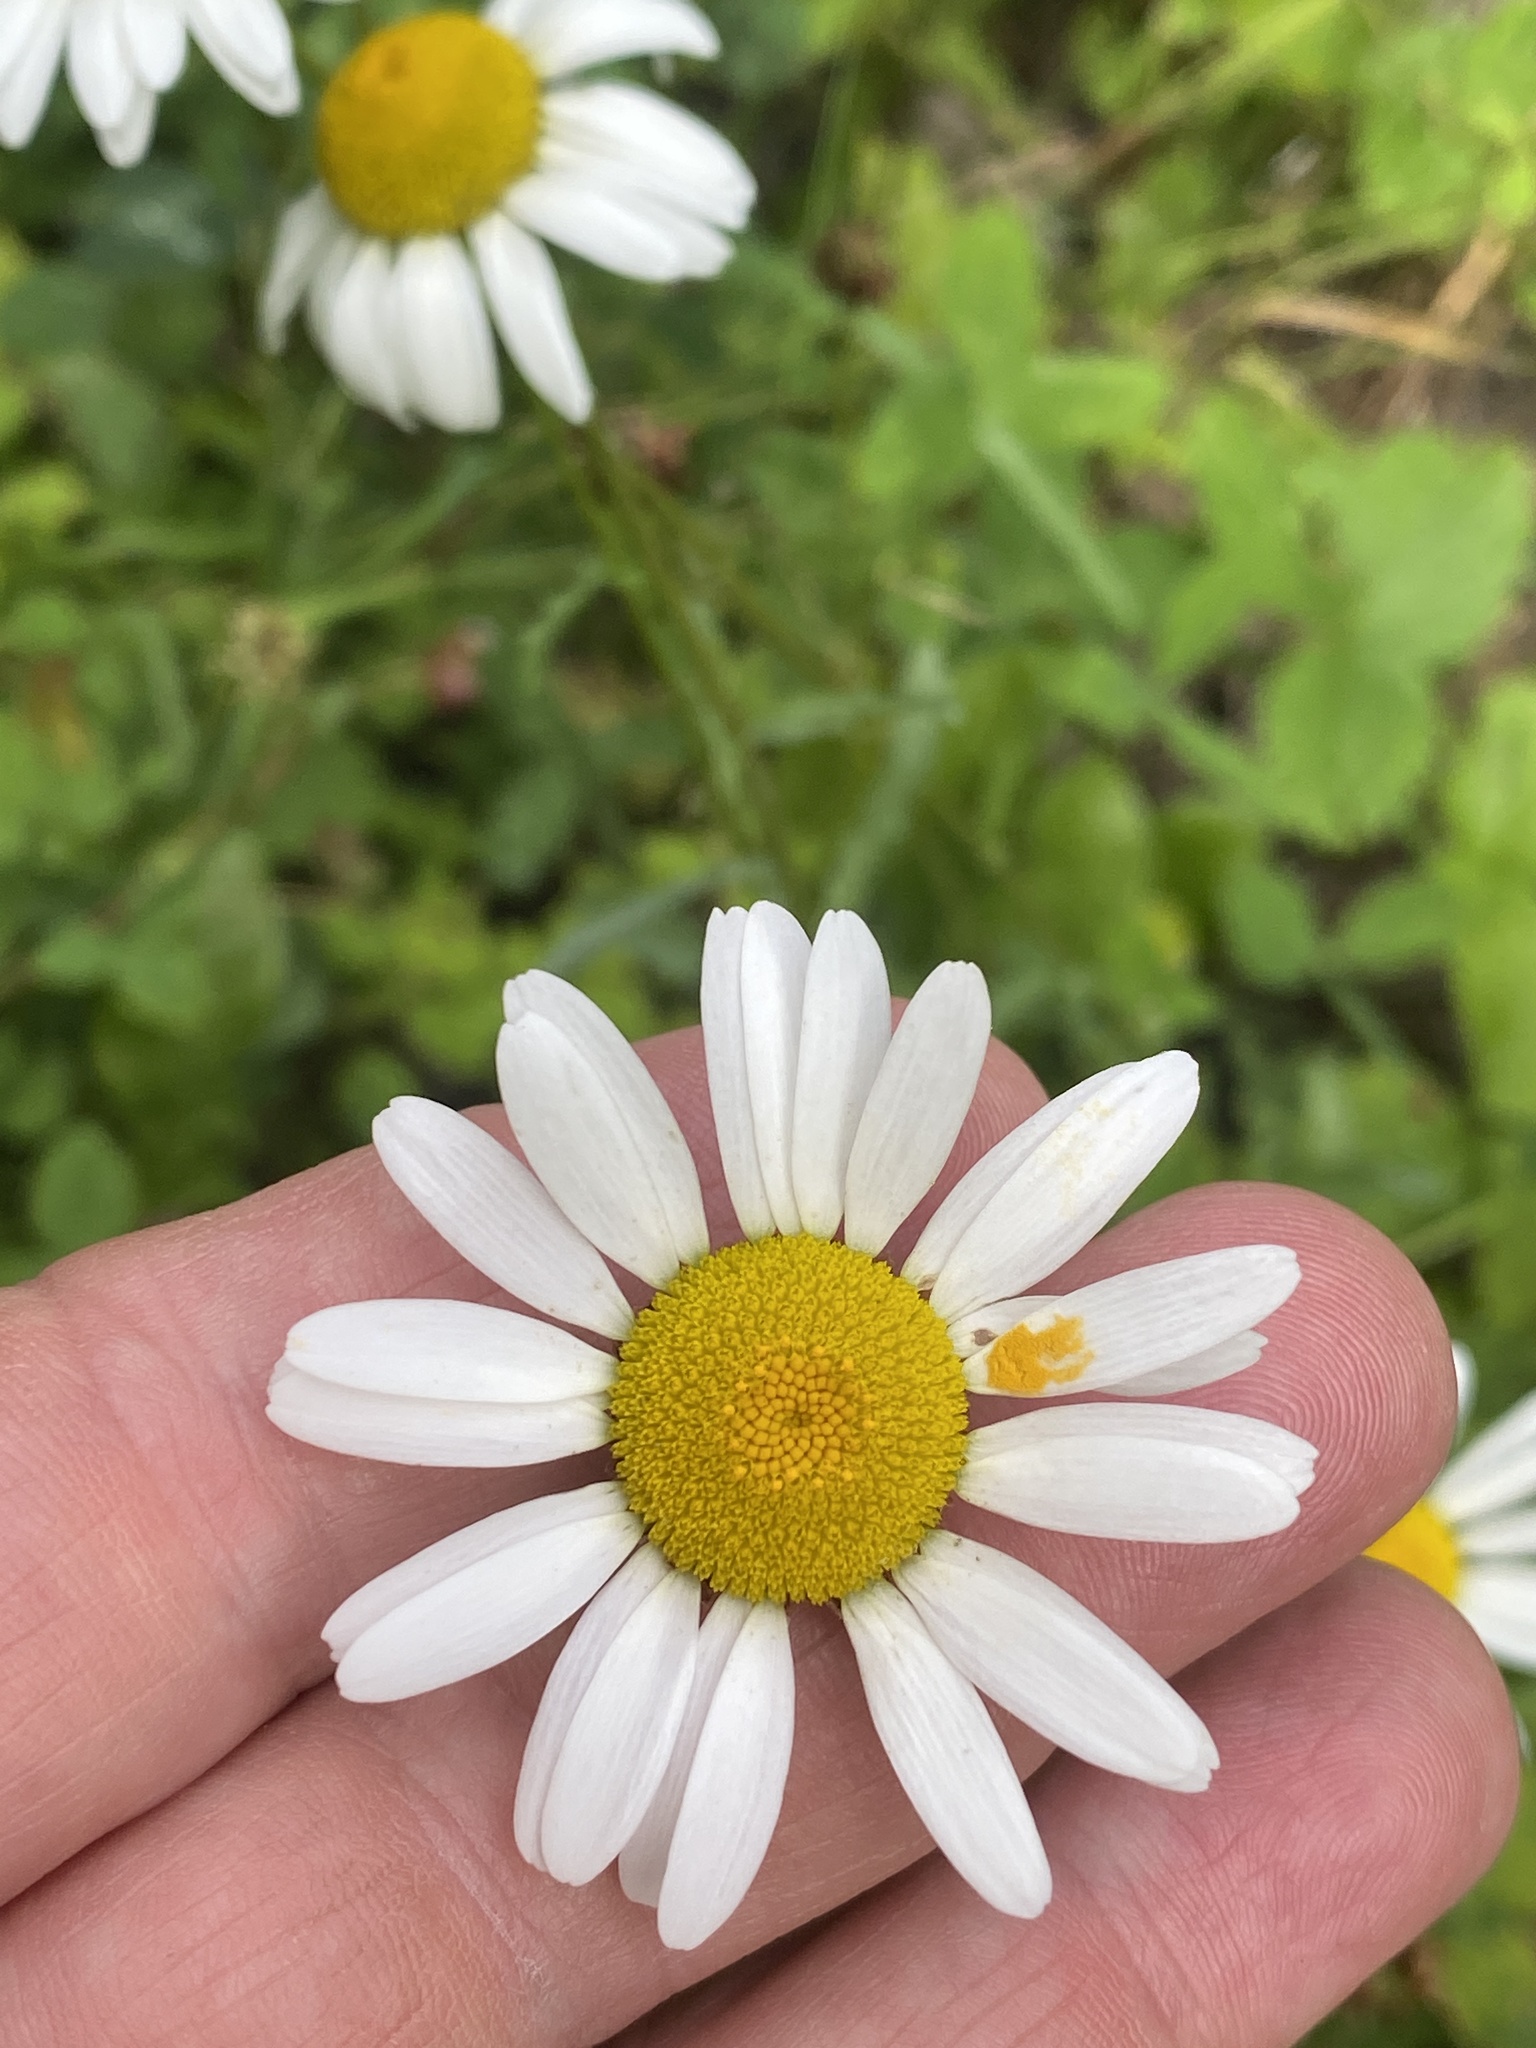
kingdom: Plantae
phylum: Tracheophyta
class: Magnoliopsida
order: Asterales
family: Asteraceae
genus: Leucanthemum
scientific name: Leucanthemum vulgare
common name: Oxeye daisy
